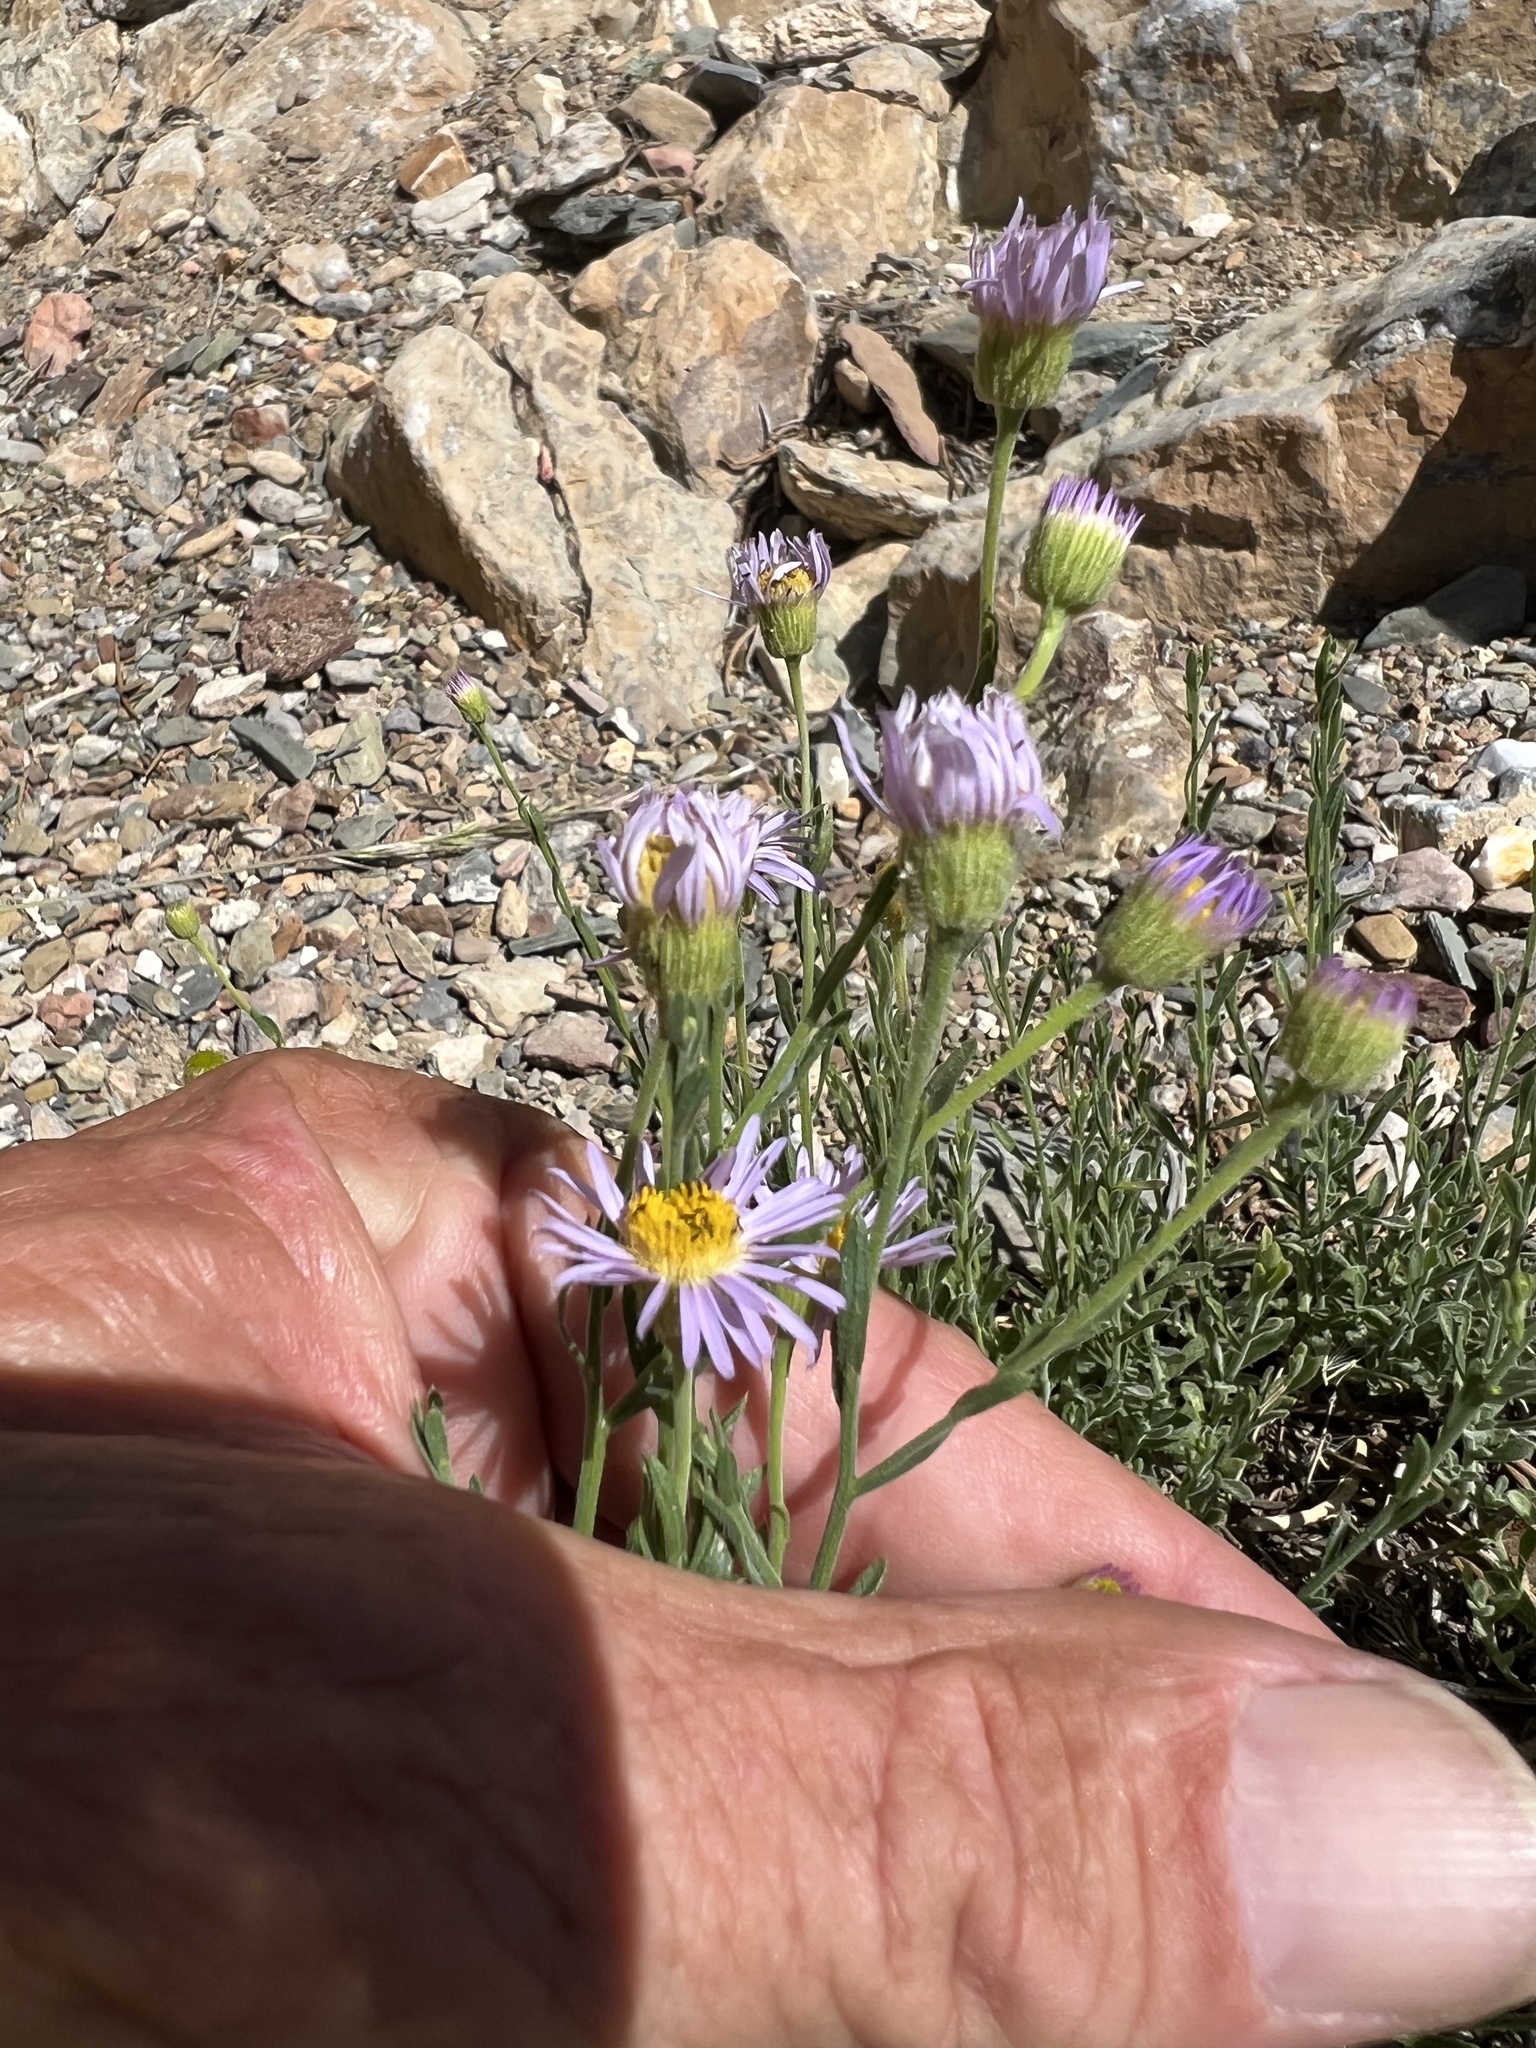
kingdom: Plantae
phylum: Tracheophyta
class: Magnoliopsida
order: Asterales
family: Asteraceae
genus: Erigeron
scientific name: Erigeron breweri
